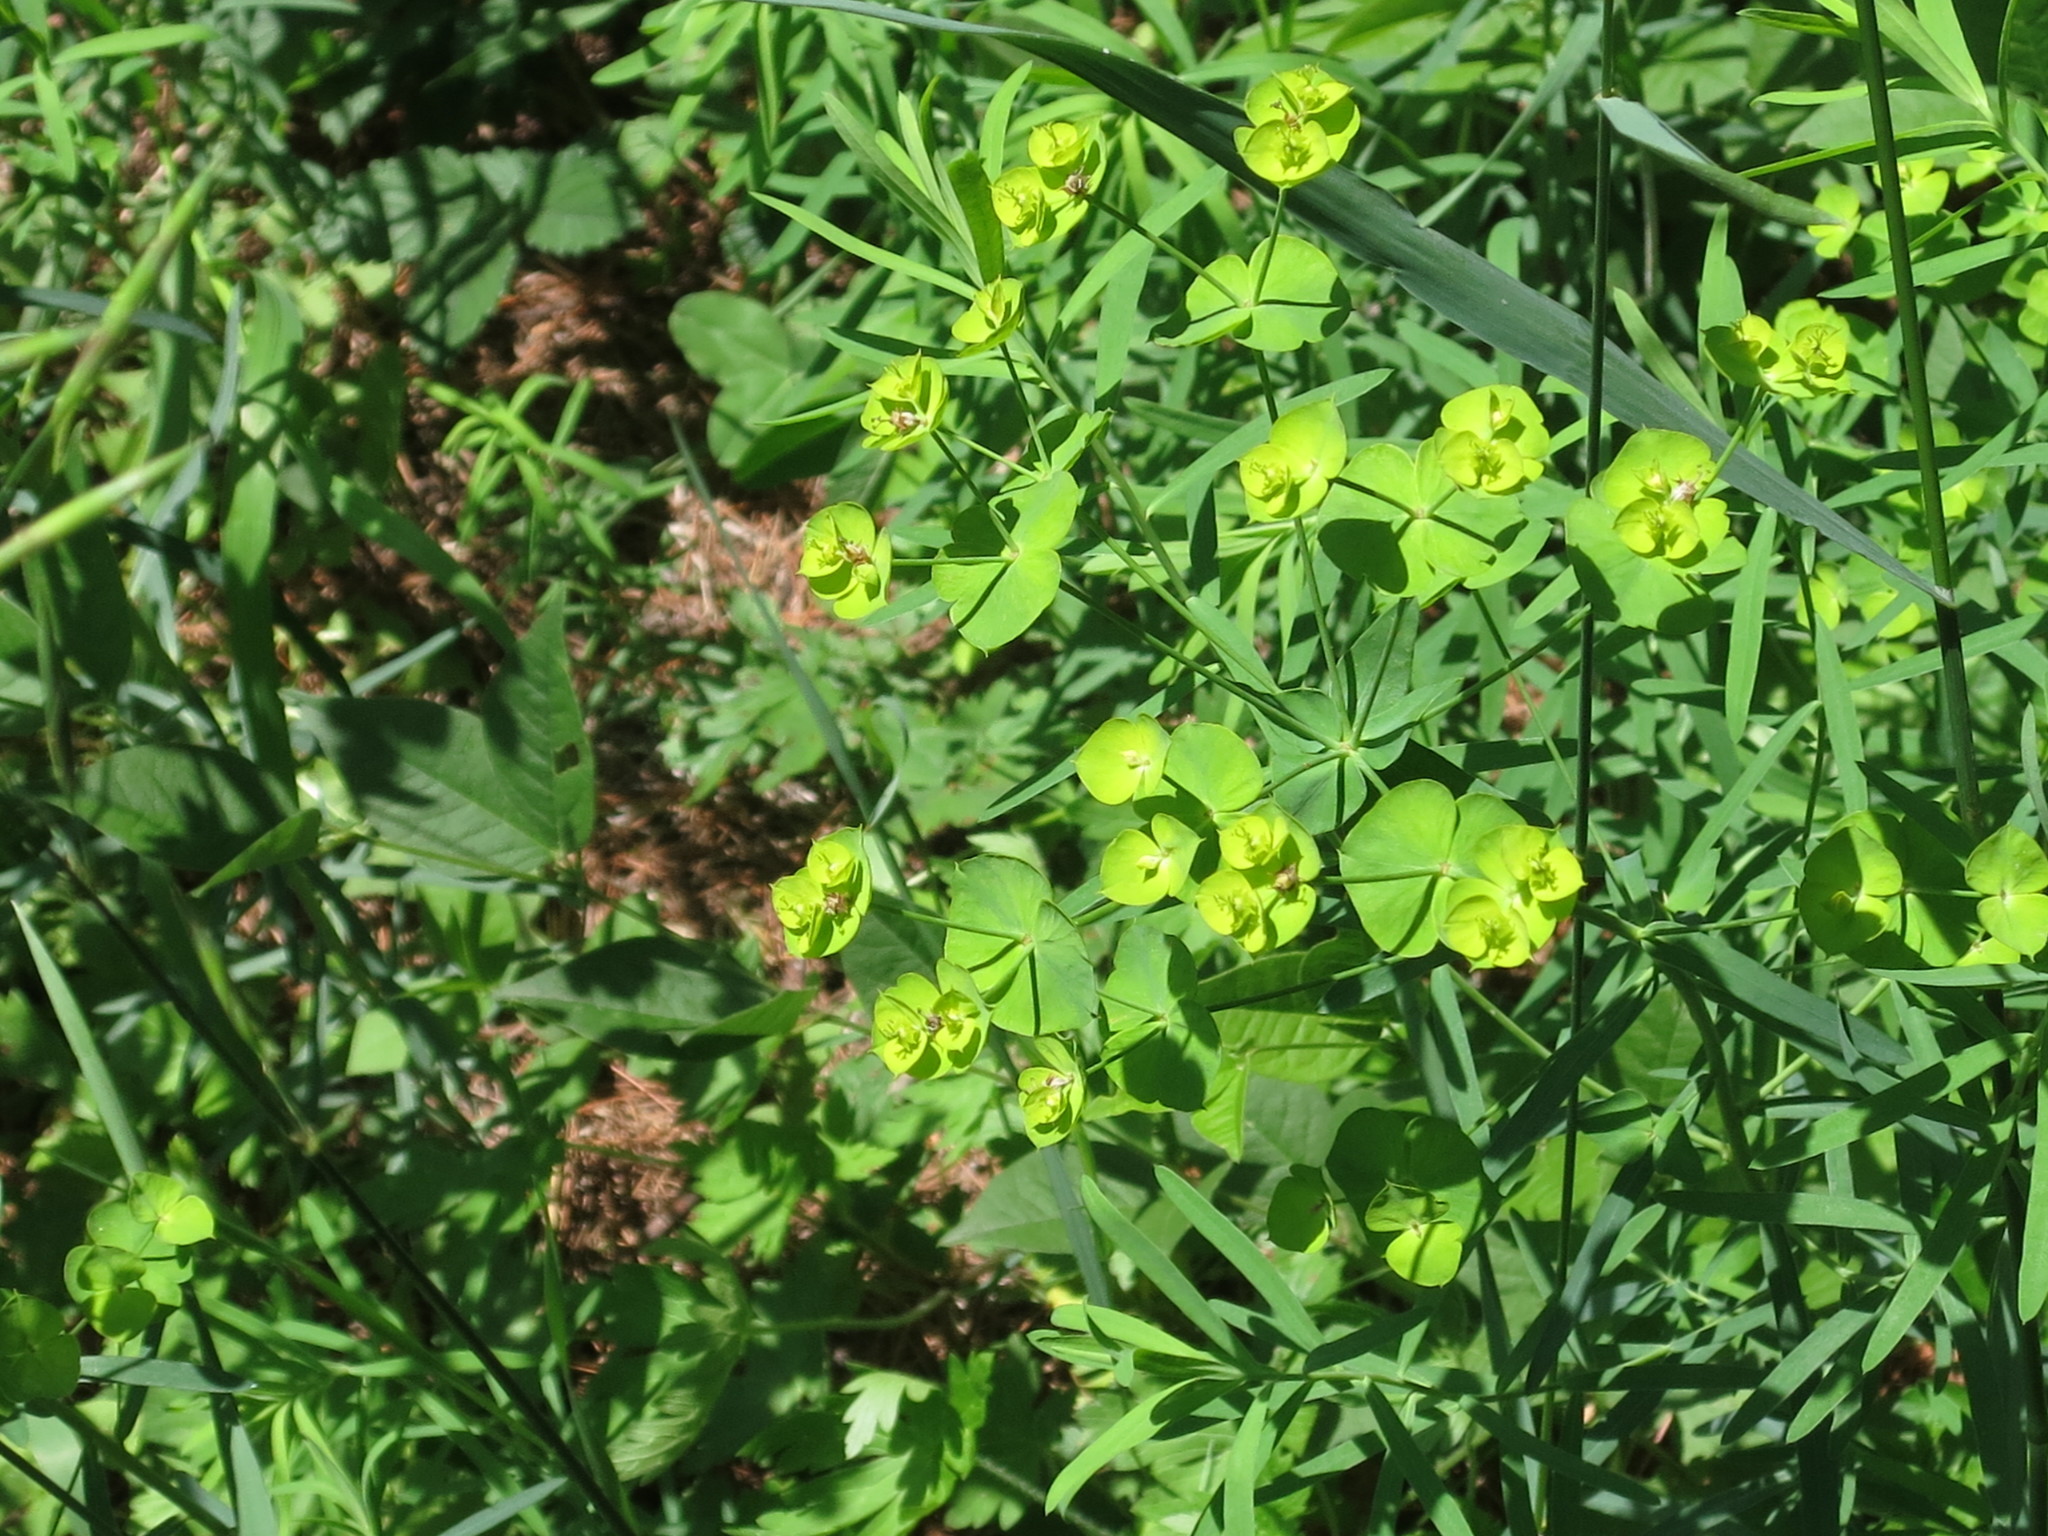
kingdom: Plantae
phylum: Tracheophyta
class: Magnoliopsida
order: Malpighiales
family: Euphorbiaceae
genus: Euphorbia
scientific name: Euphorbia virgata
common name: Leafy spurge
